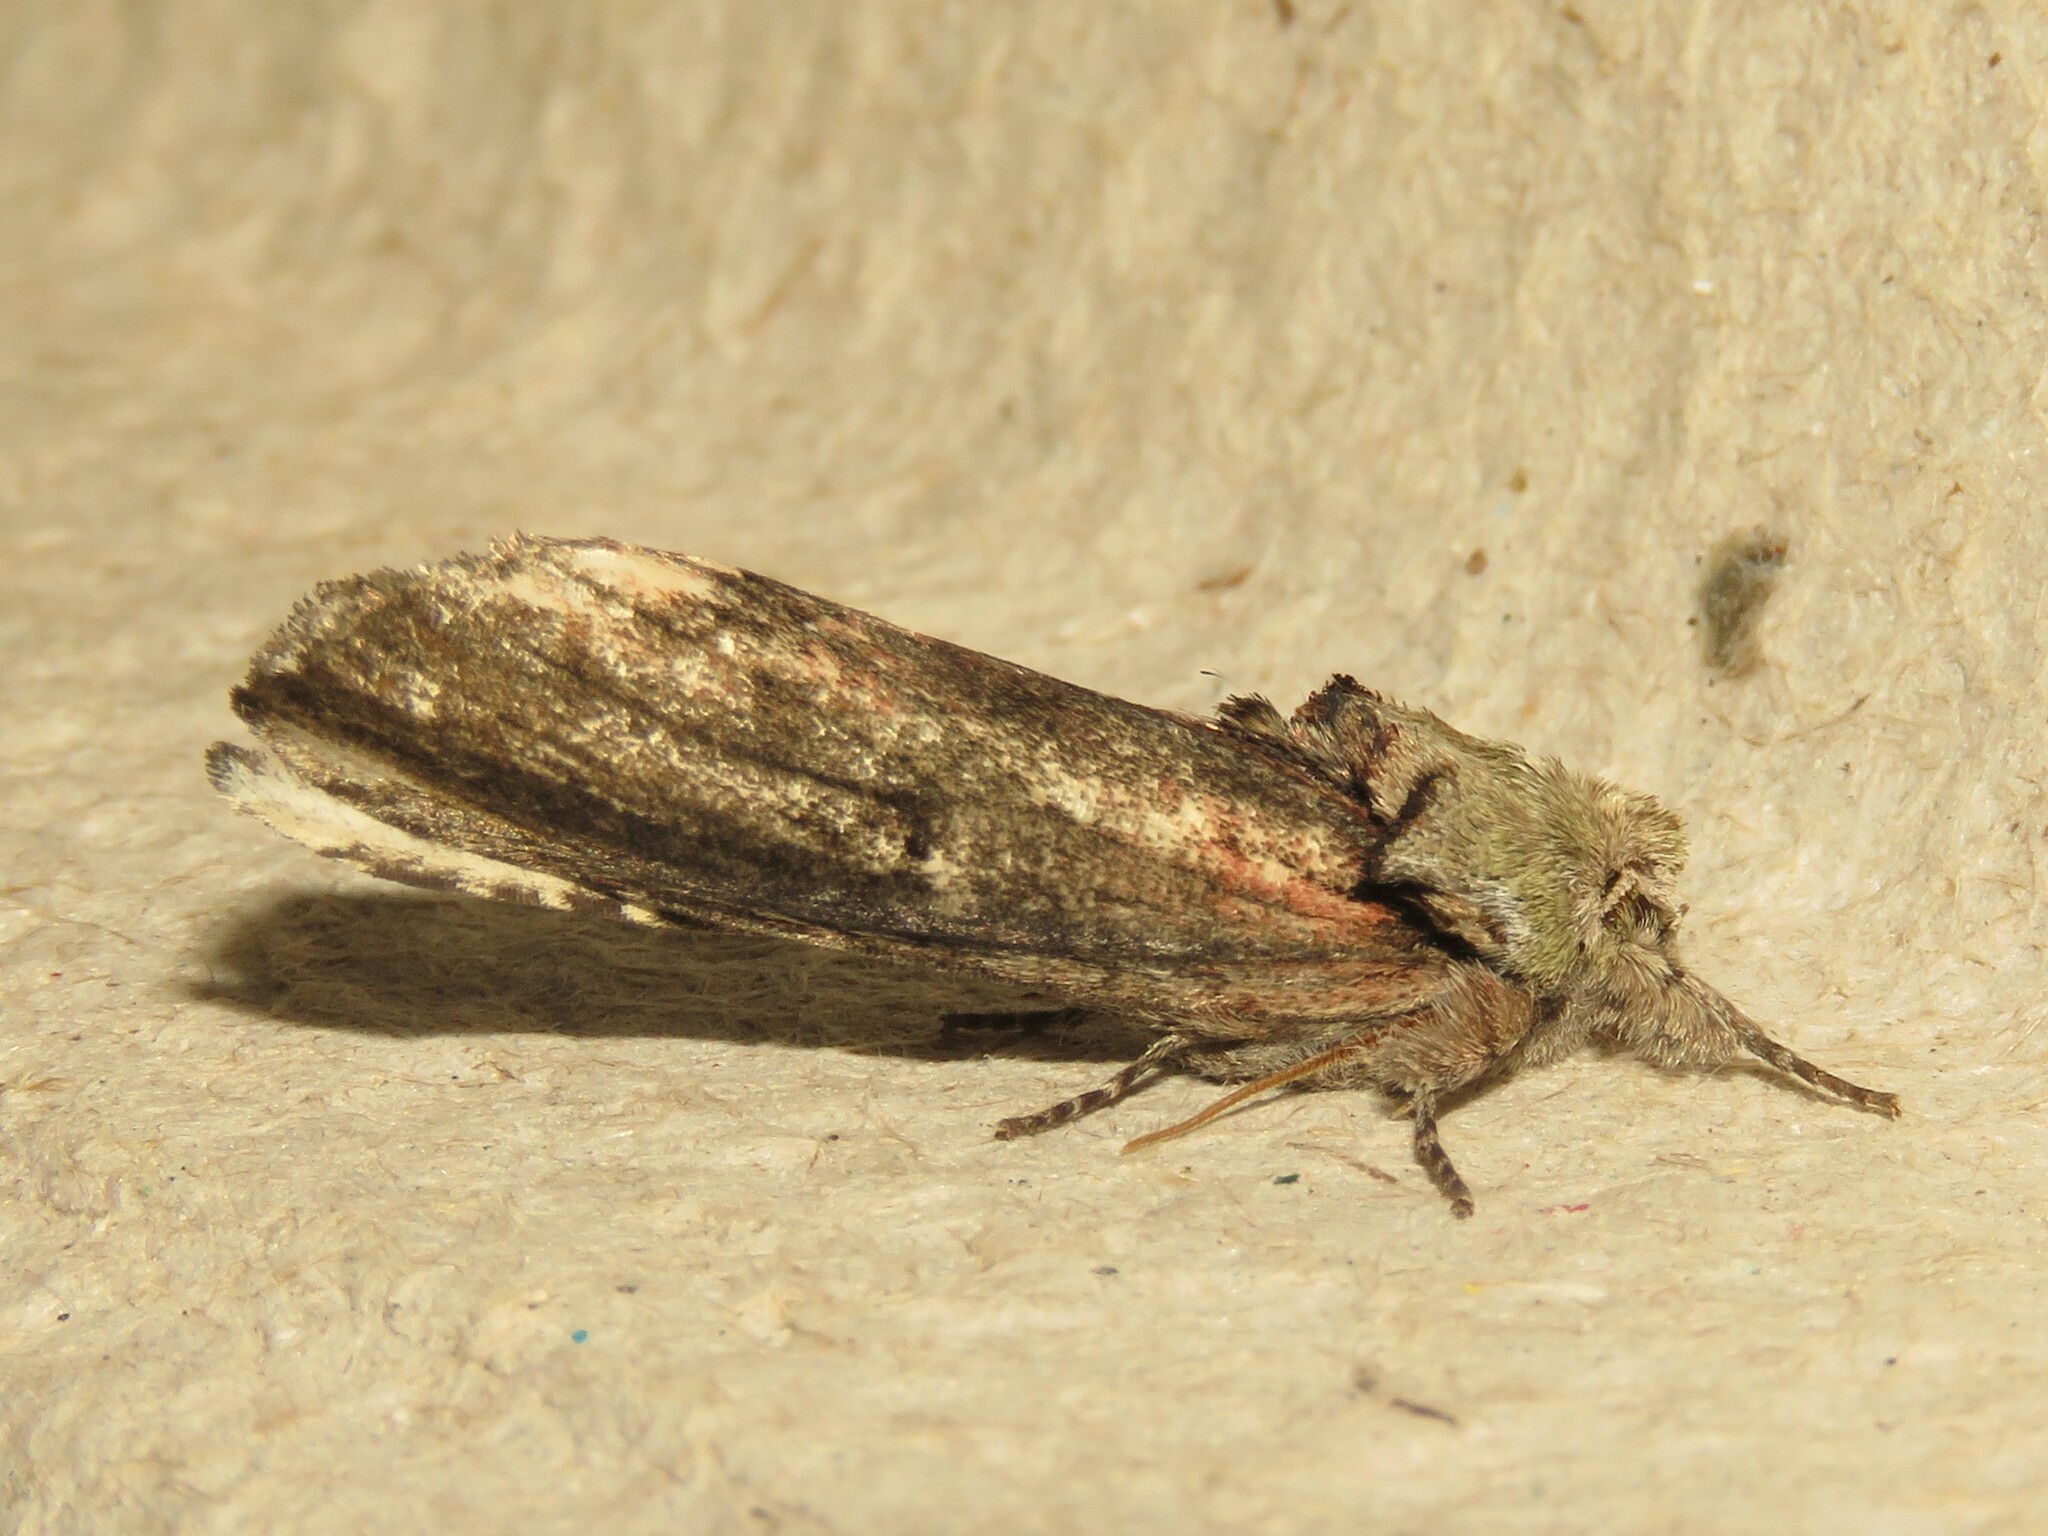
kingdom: Animalia
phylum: Arthropoda
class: Insecta
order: Lepidoptera
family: Notodontidae
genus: Schizura
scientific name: Schizura
